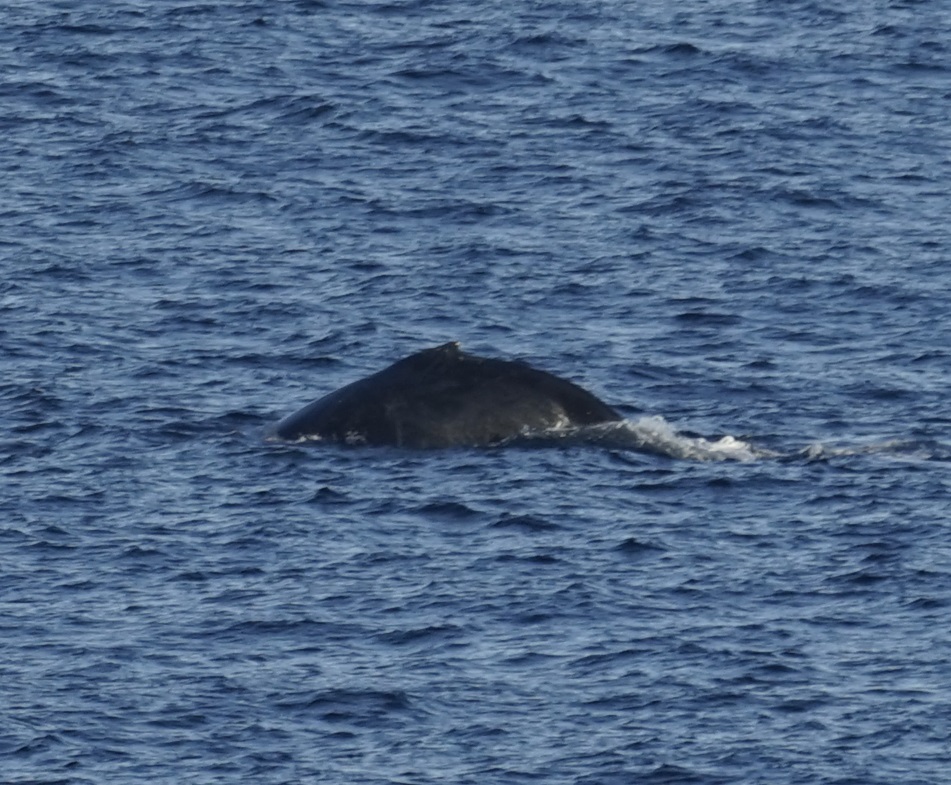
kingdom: Animalia
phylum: Chordata
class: Mammalia
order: Cetacea
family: Balaenopteridae
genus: Megaptera
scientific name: Megaptera novaeangliae
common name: Humpback whale
